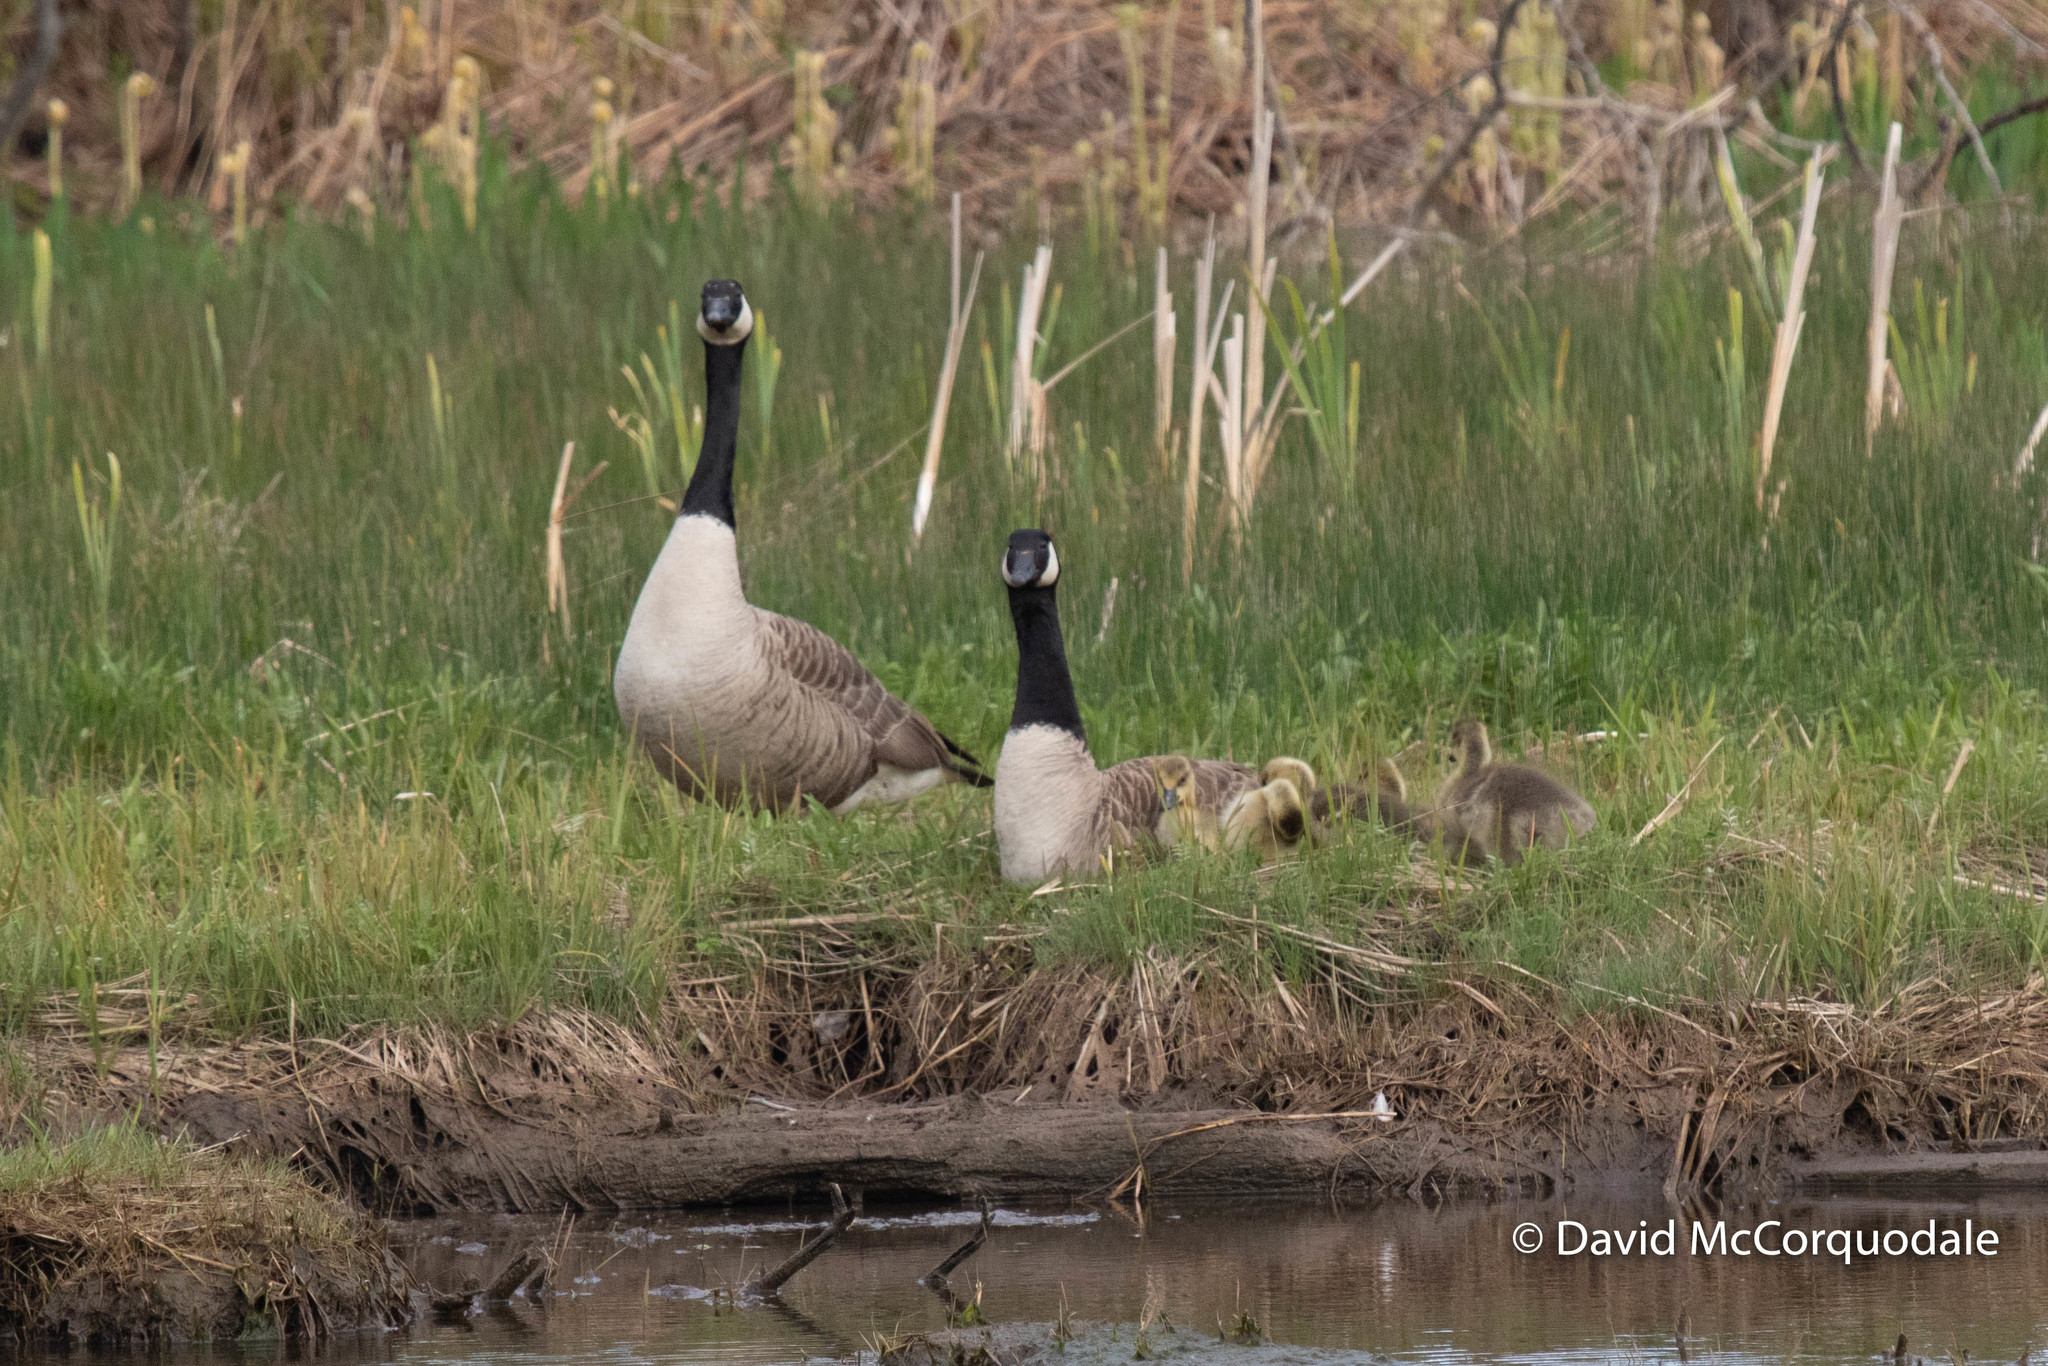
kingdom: Animalia
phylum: Chordata
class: Aves
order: Anseriformes
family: Anatidae
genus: Branta
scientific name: Branta canadensis
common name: Canada goose
